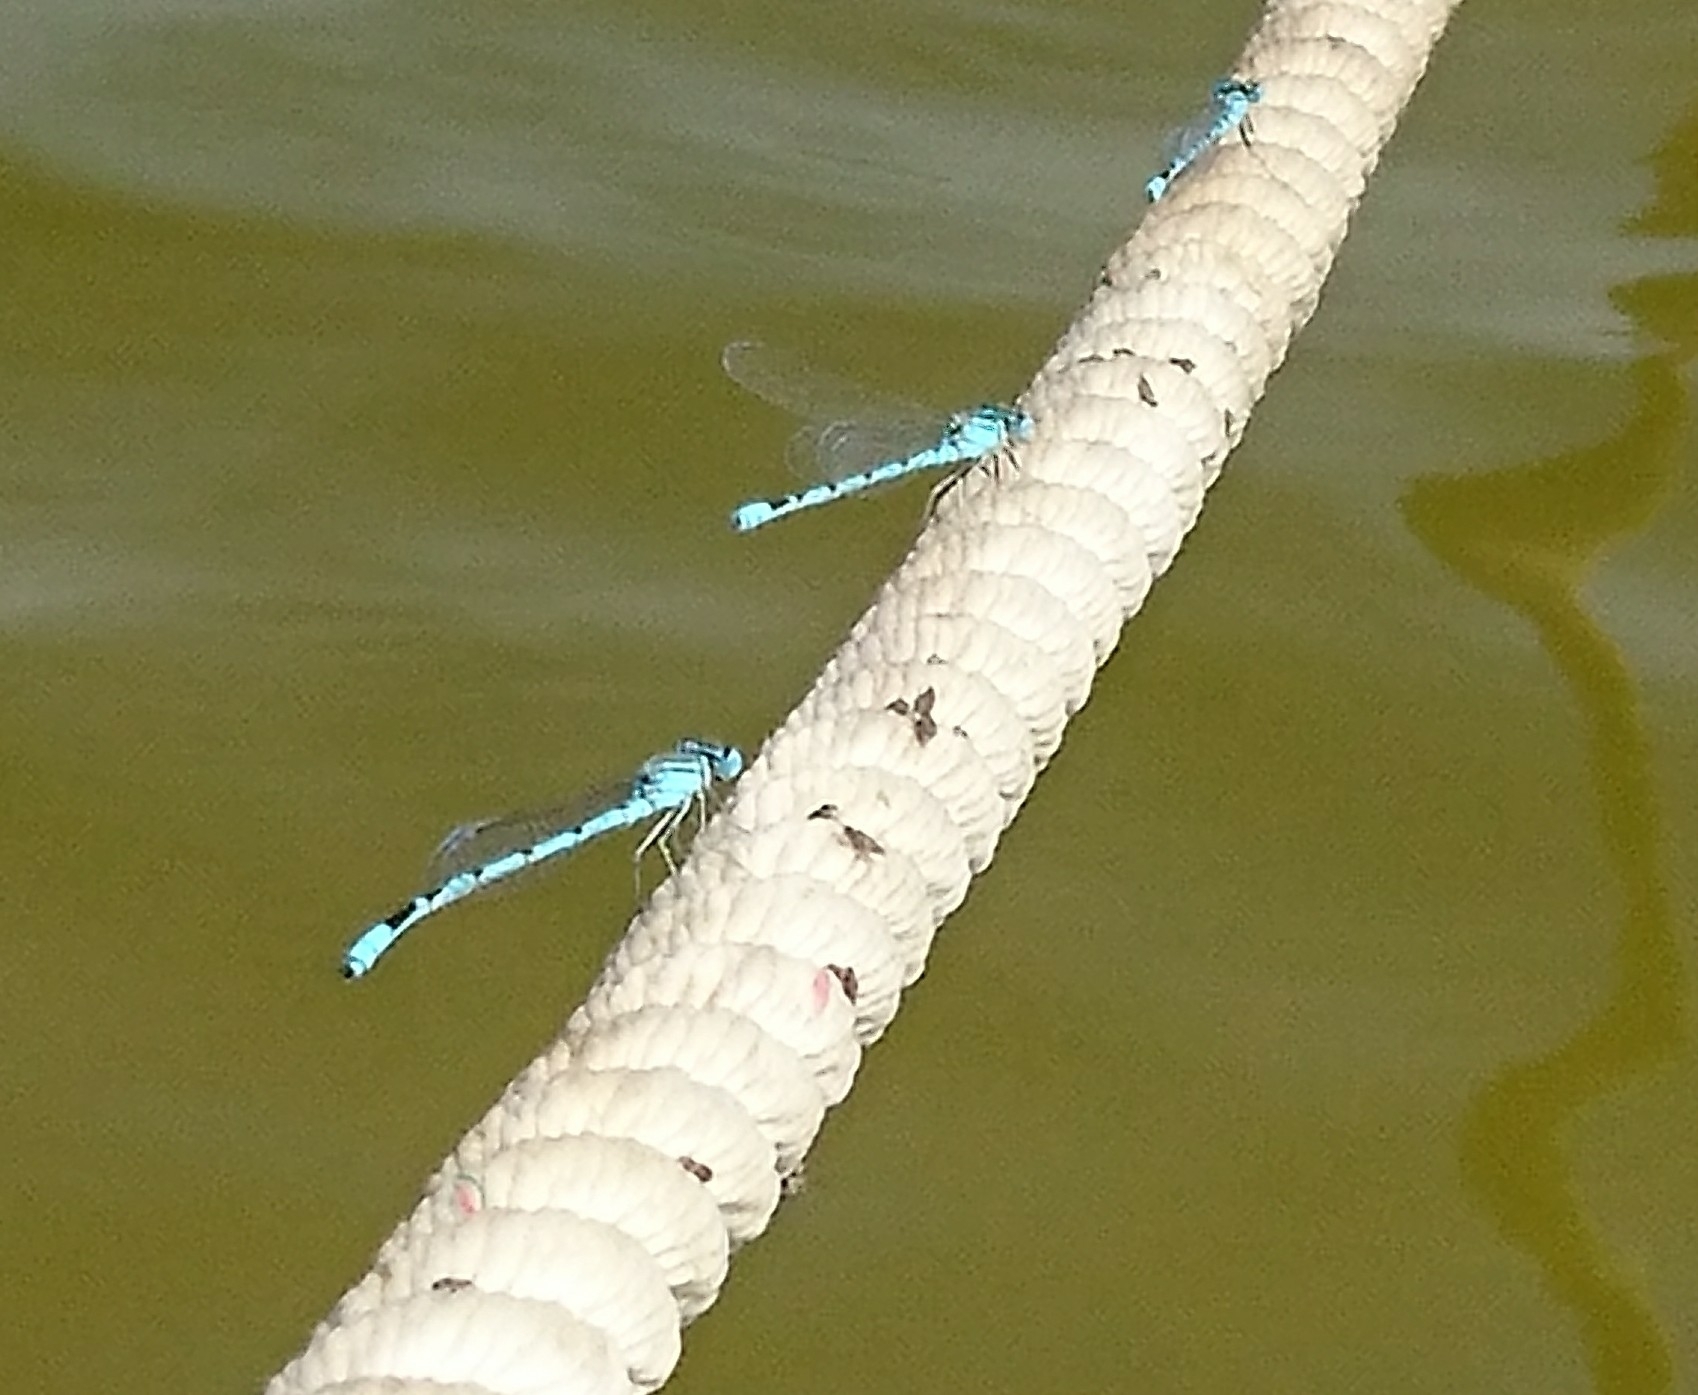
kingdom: Animalia
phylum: Arthropoda
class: Insecta
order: Odonata
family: Coenagrionidae
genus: Enallagma
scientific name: Enallagma durum
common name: Big bluet
